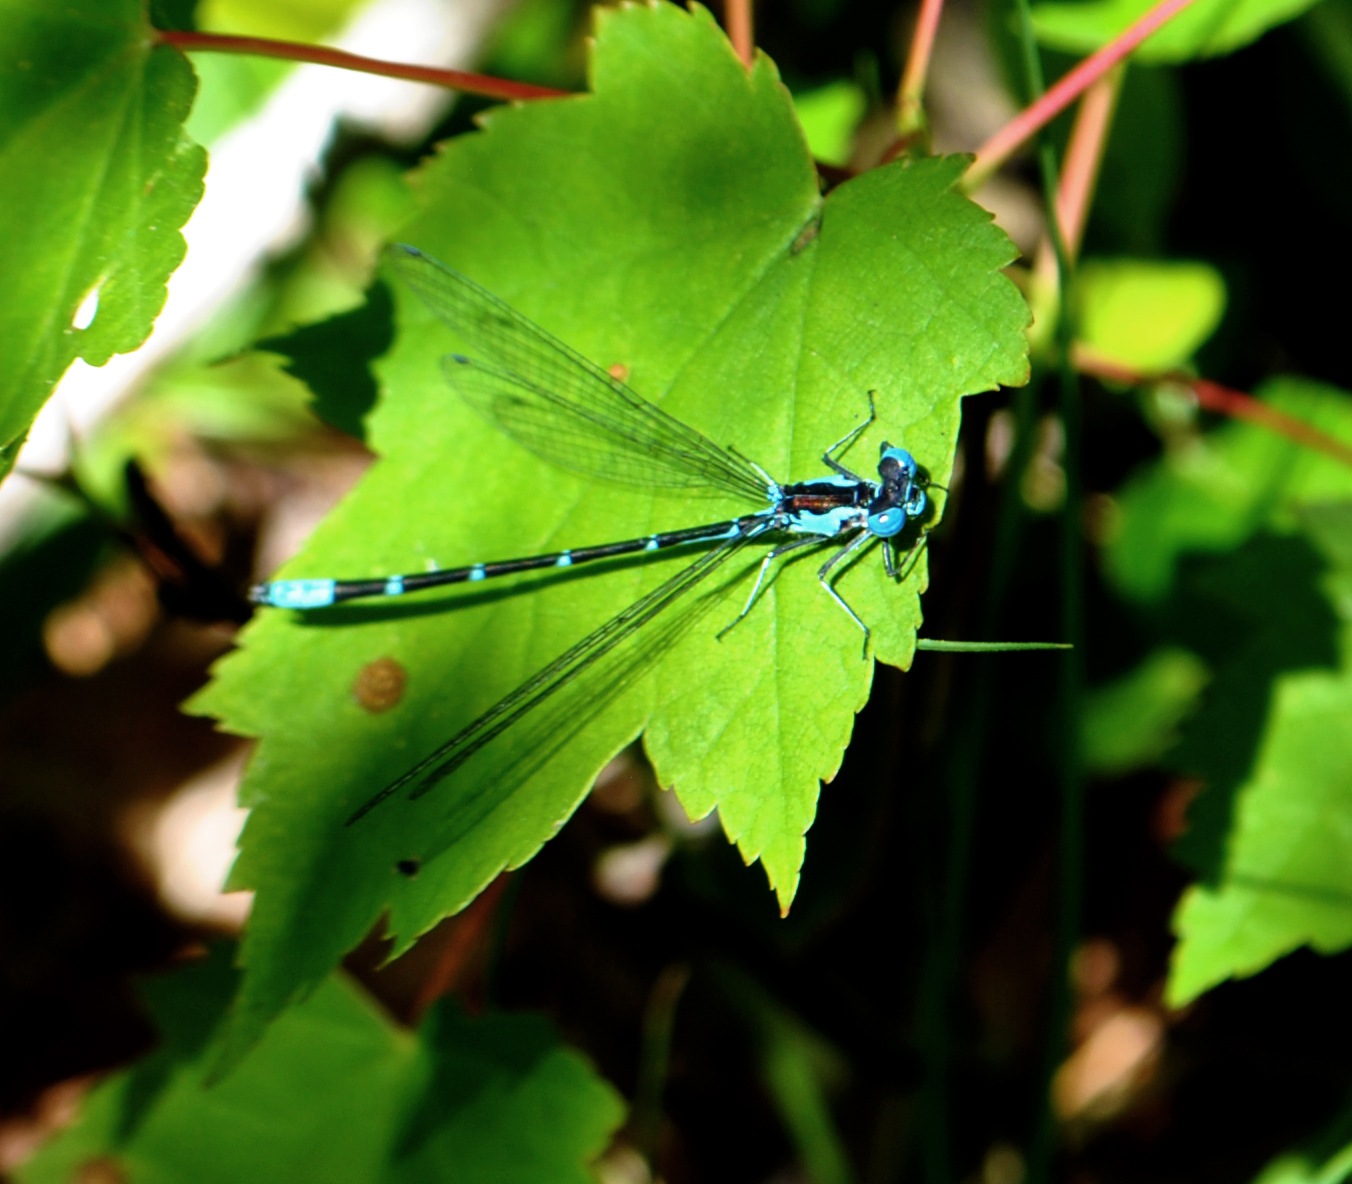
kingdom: Animalia
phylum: Arthropoda
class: Insecta
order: Odonata
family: Coenagrionidae
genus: Chromagrion
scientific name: Chromagrion conditum
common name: Aurora damsel
